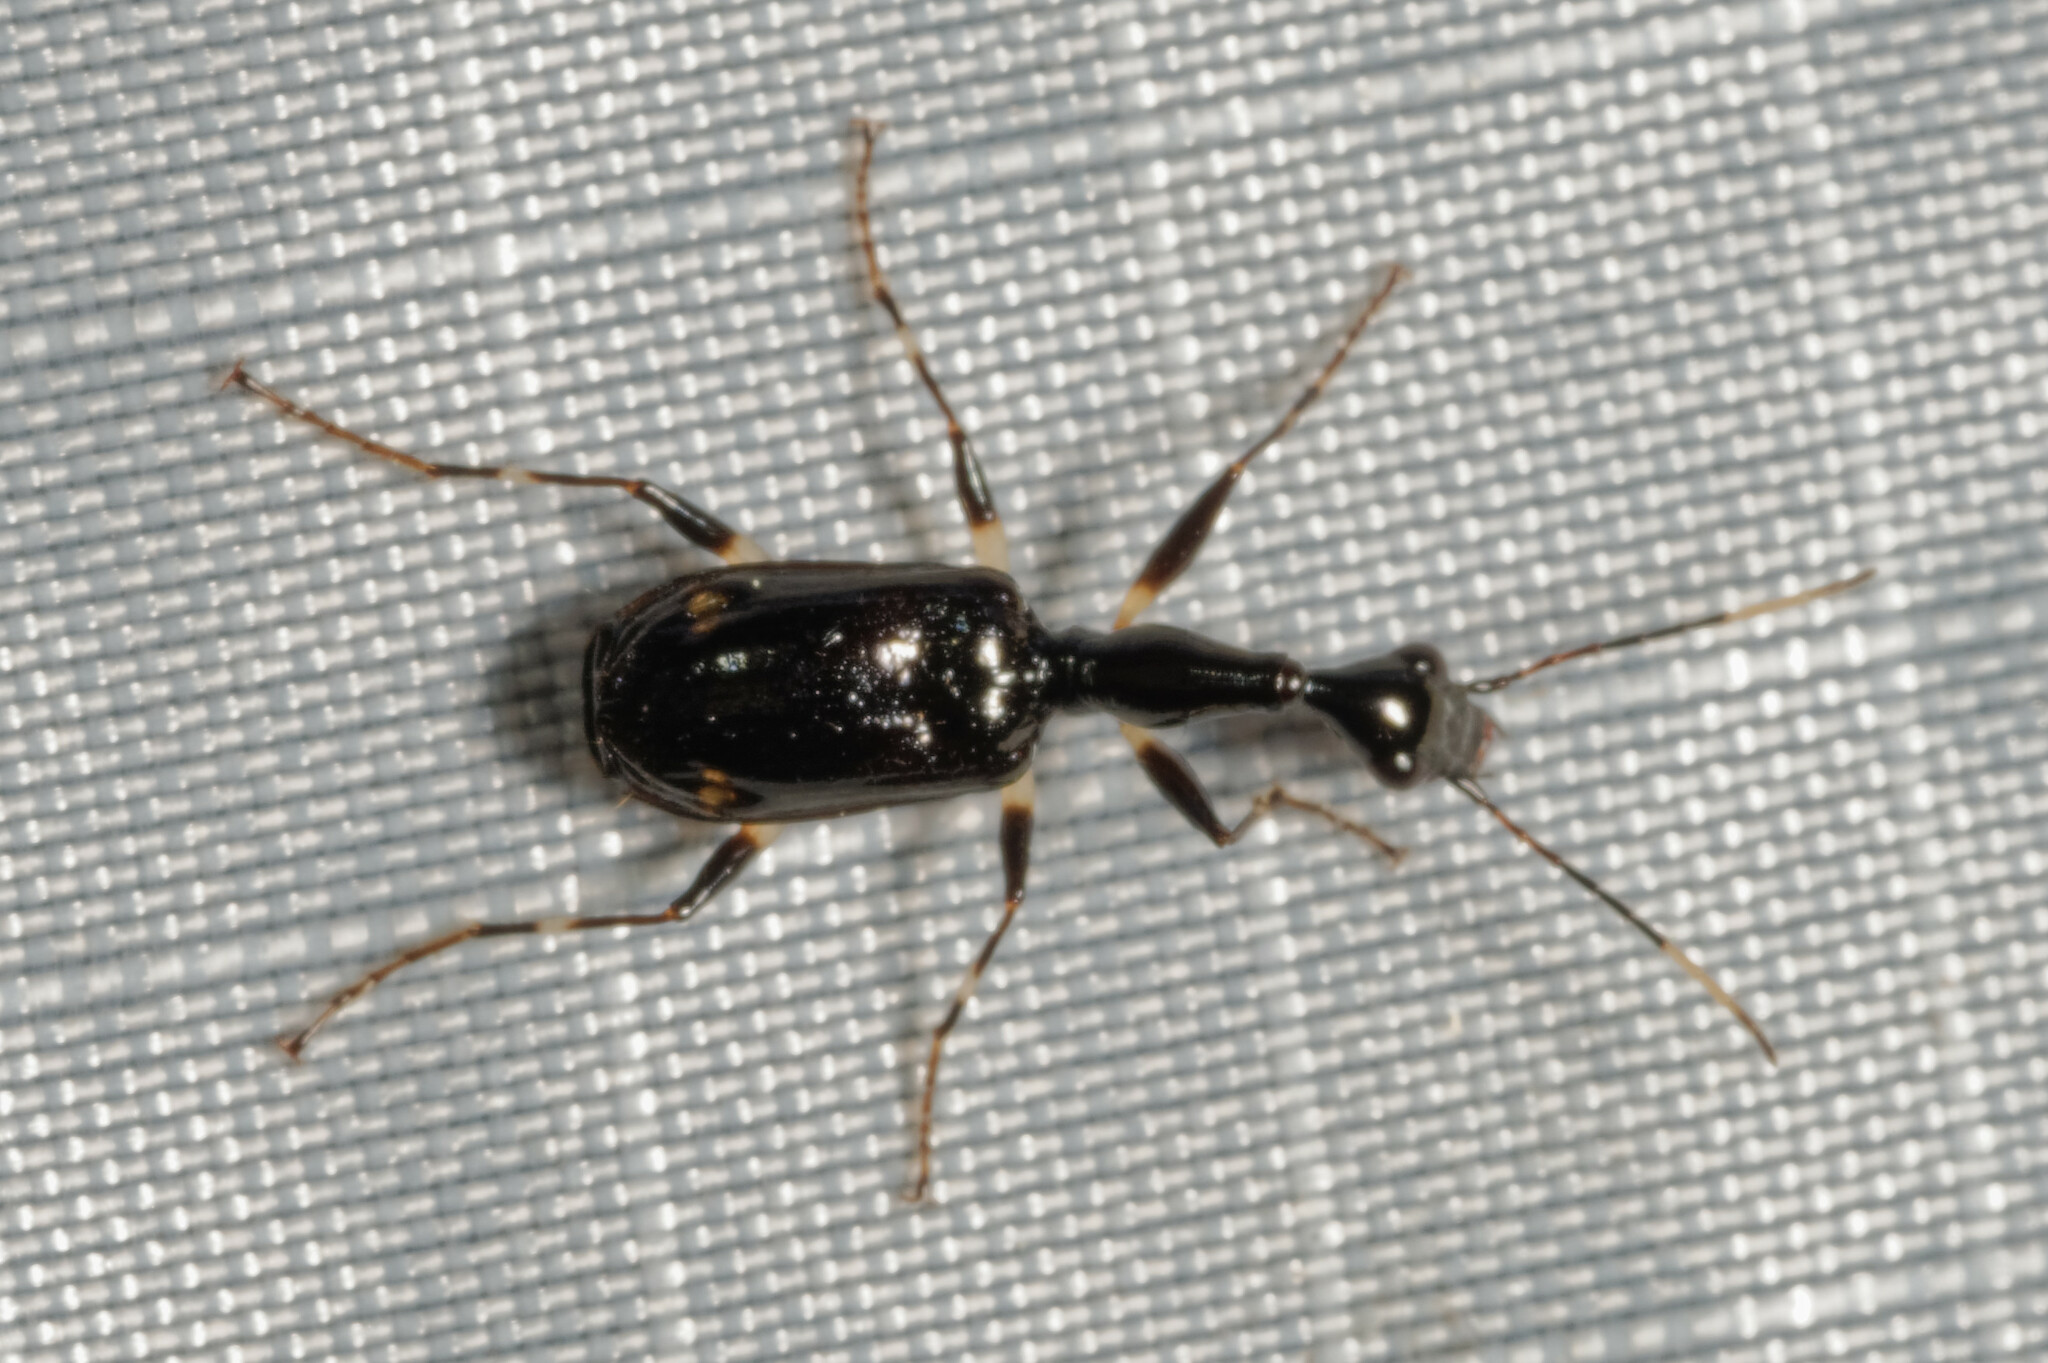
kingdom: Animalia
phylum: Arthropoda
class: Insecta
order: Coleoptera
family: Carabidae
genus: Colliuris
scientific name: Colliuris caymanensis
